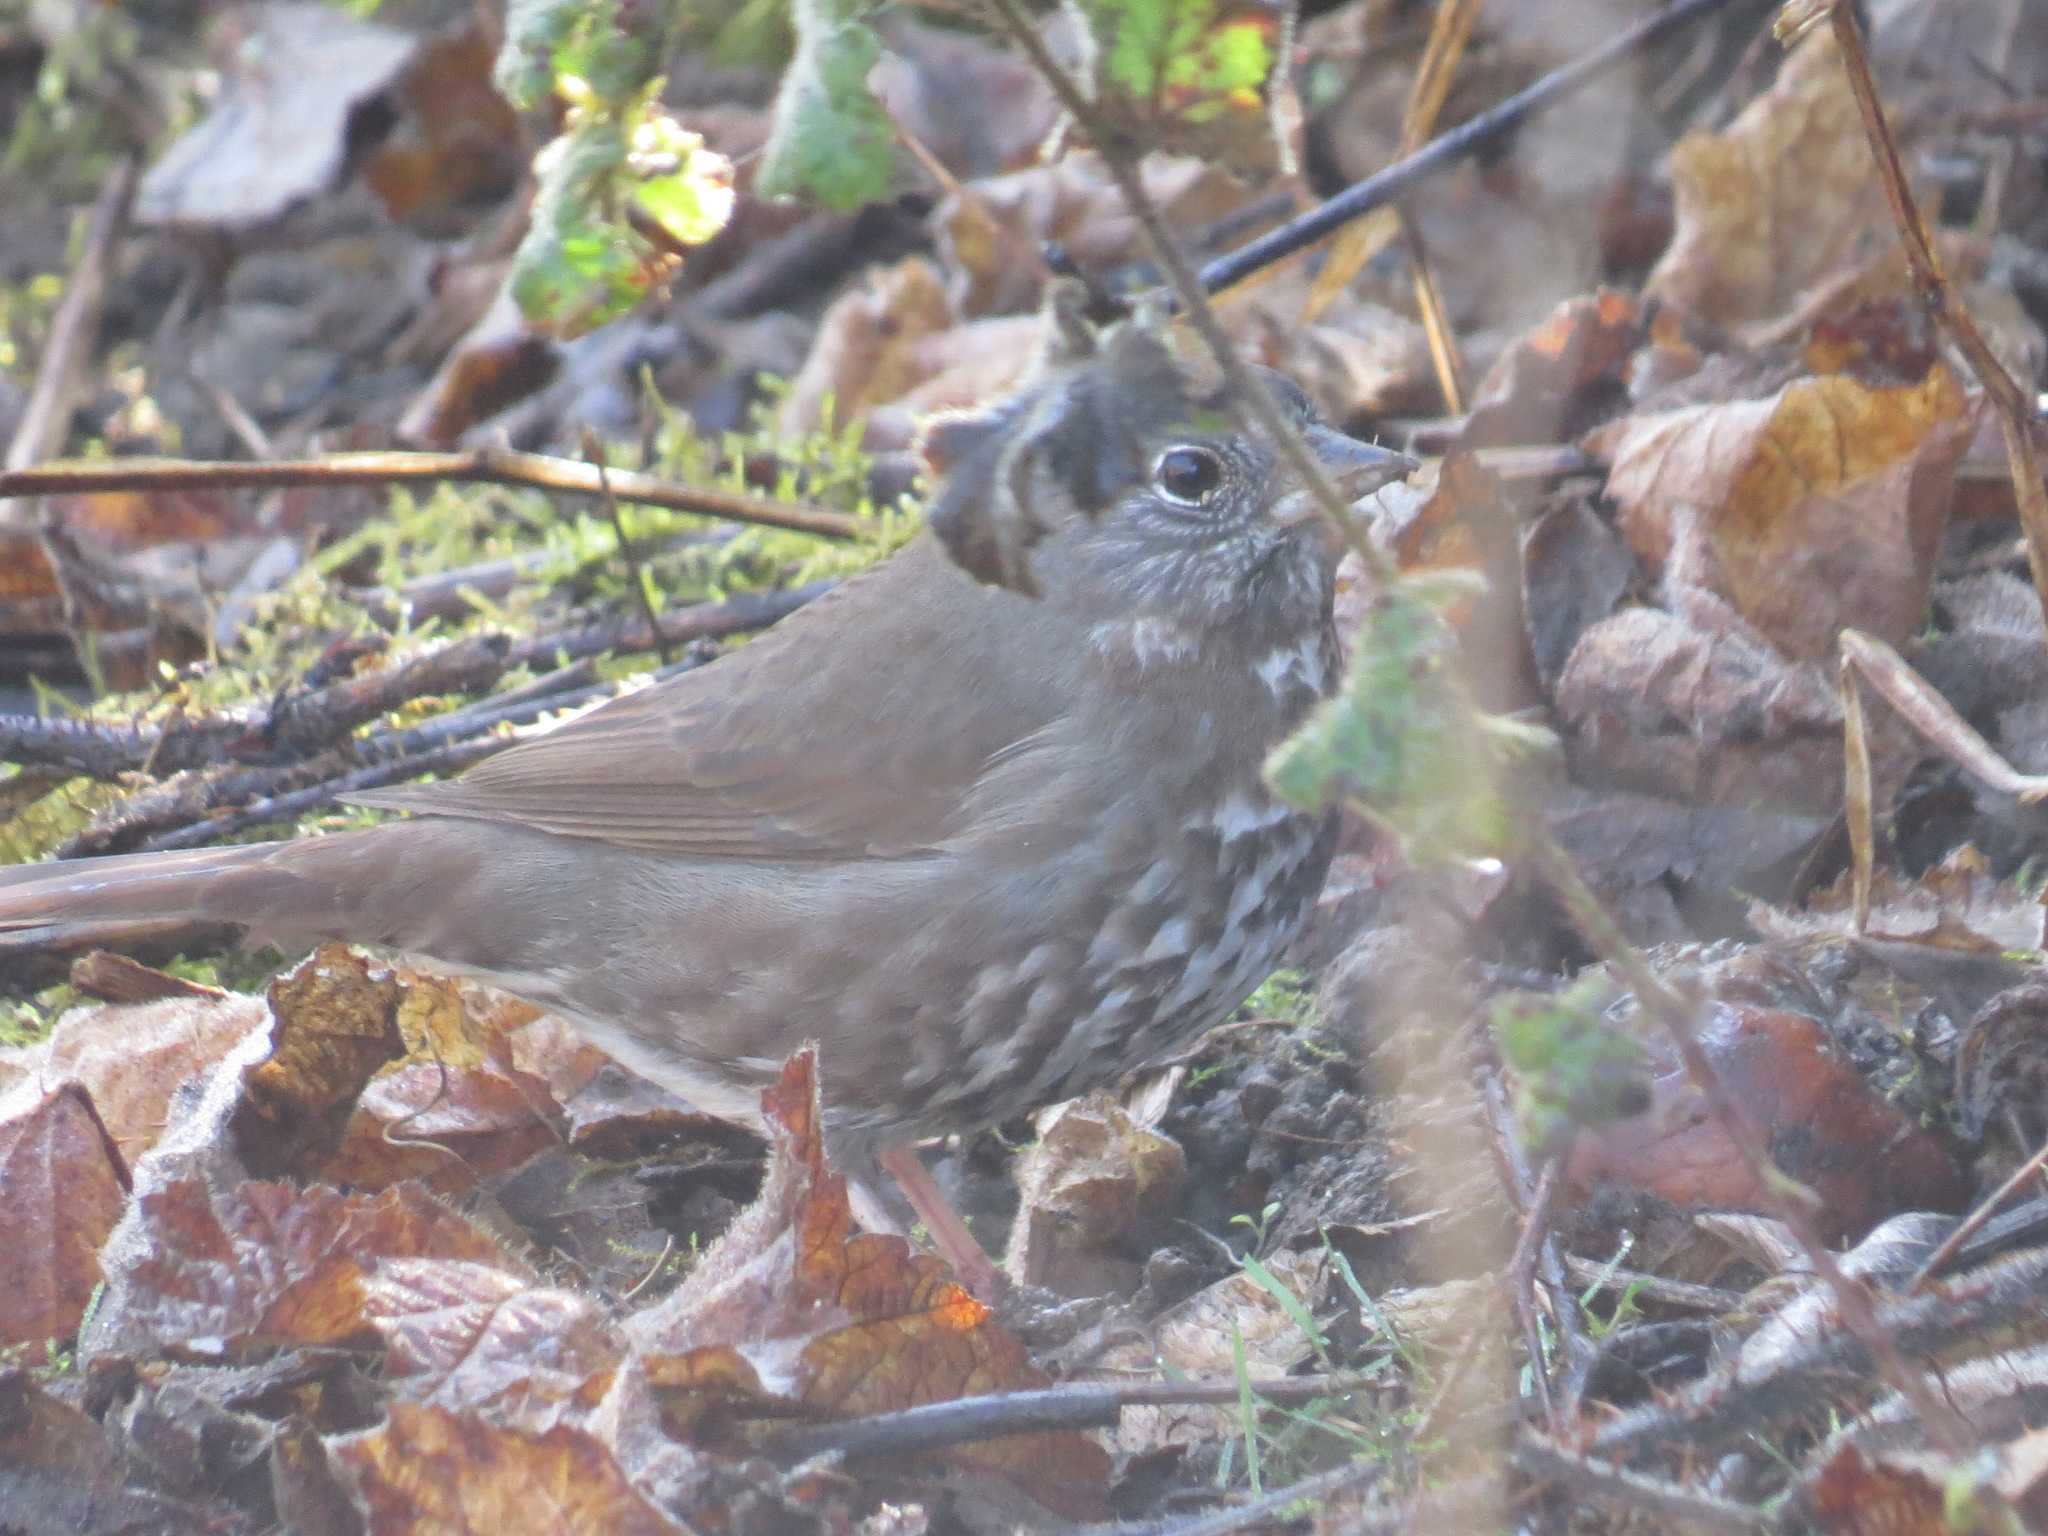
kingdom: Animalia
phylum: Chordata
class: Aves
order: Passeriformes
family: Passerellidae
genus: Passerella
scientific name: Passerella iliaca
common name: Fox sparrow
